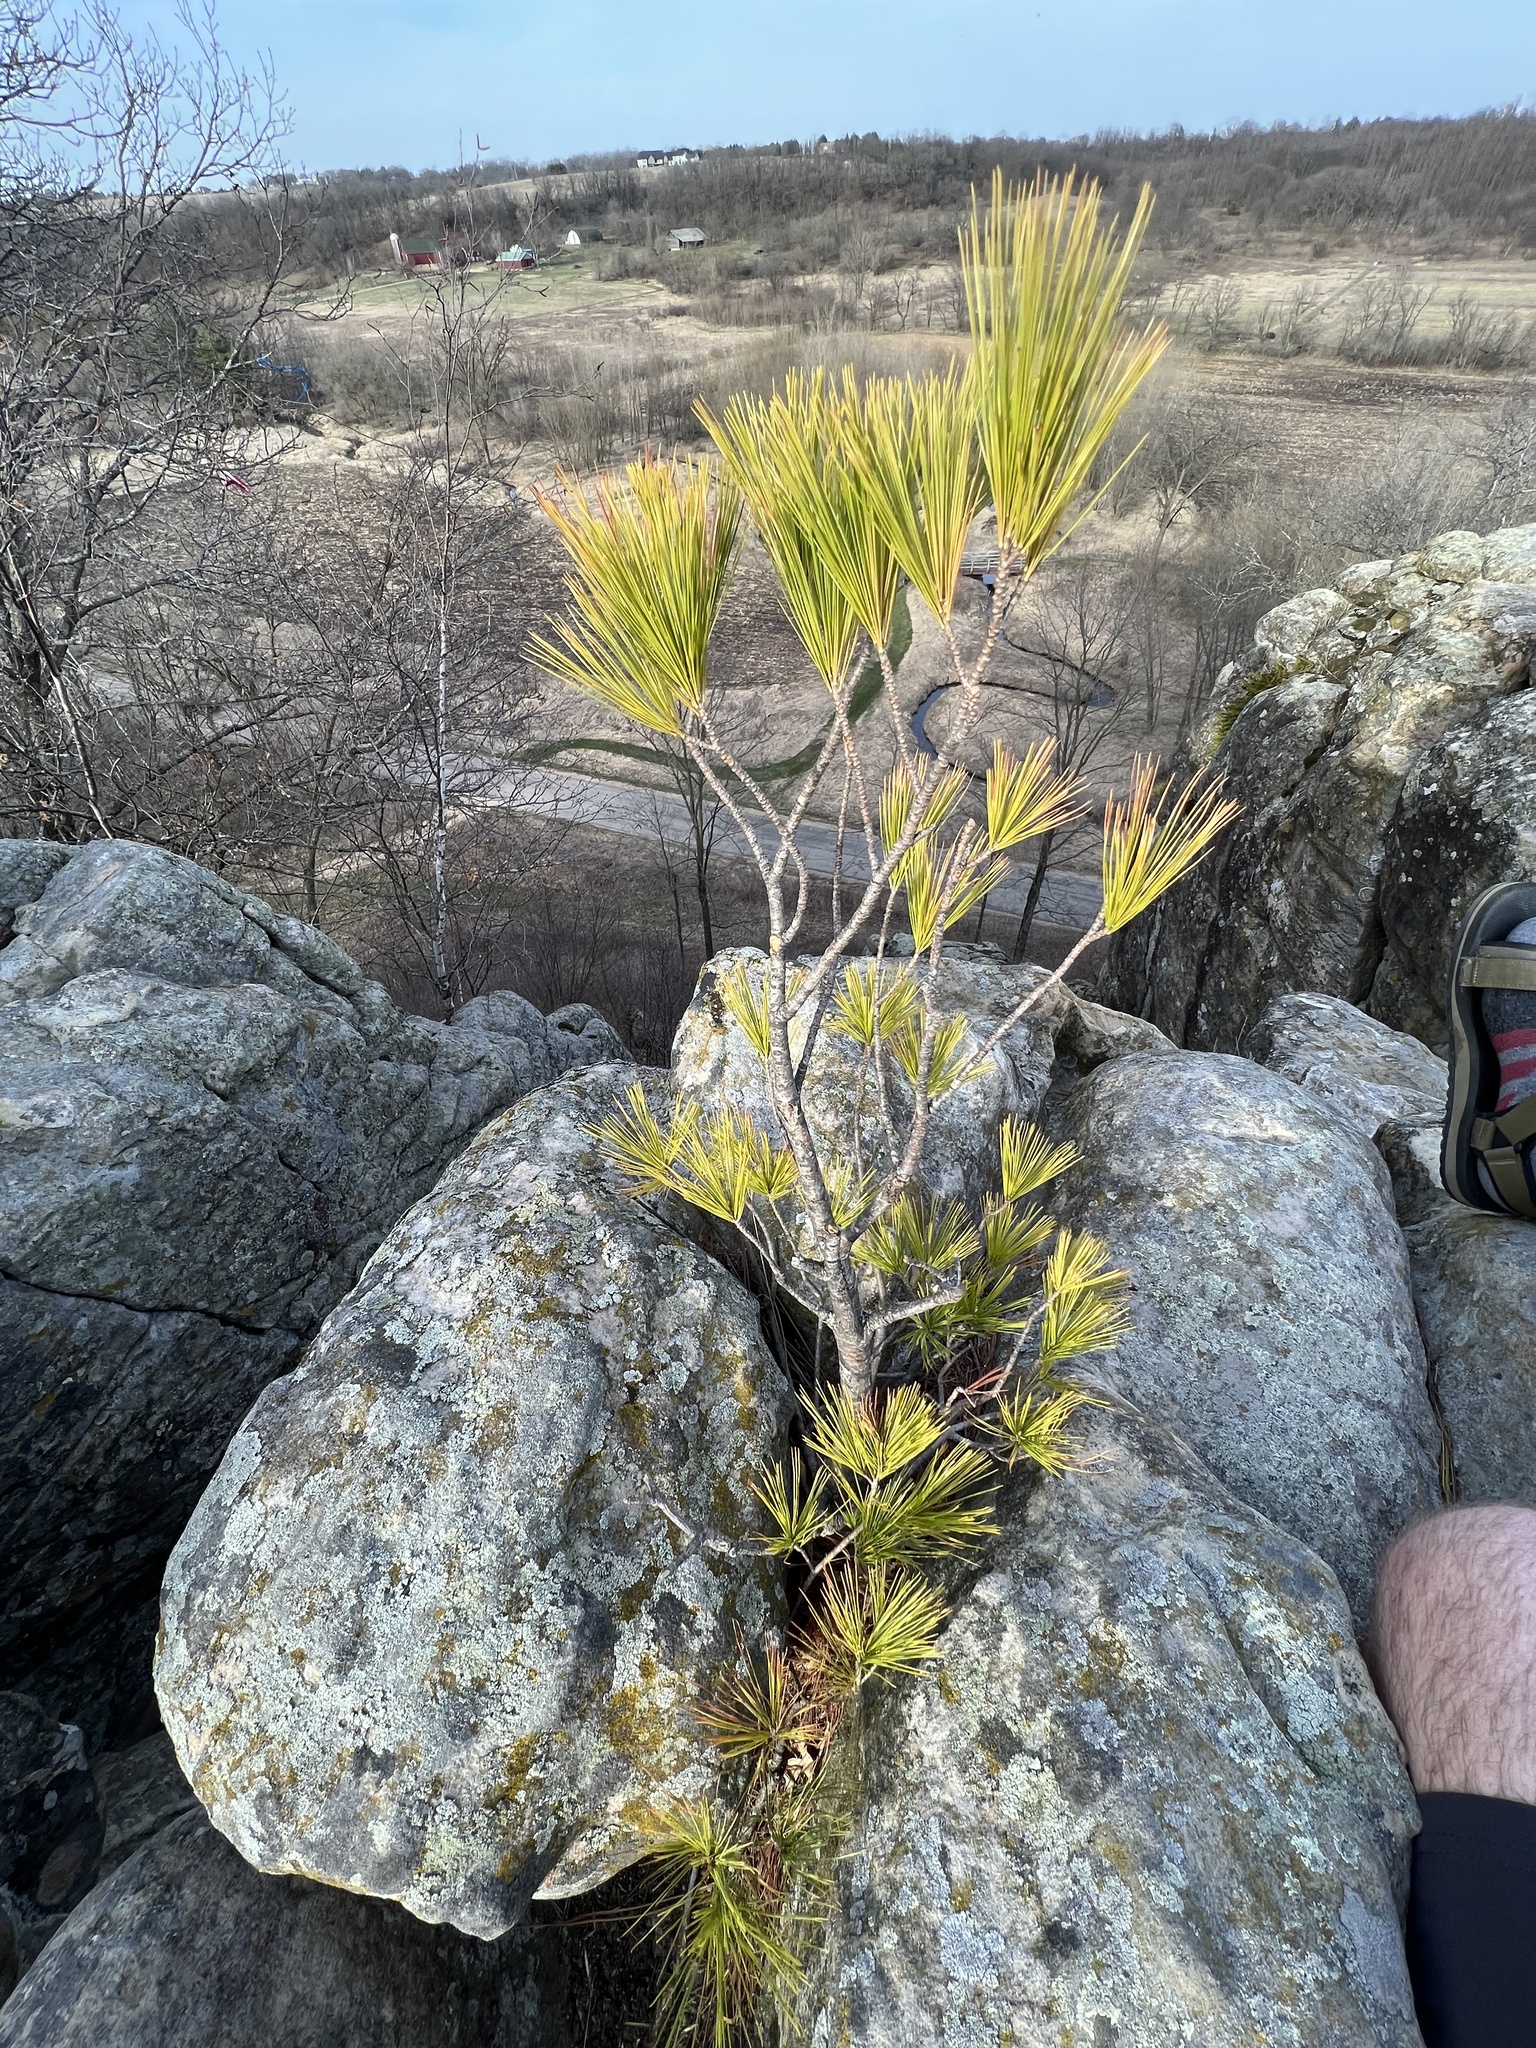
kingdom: Plantae
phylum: Tracheophyta
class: Pinopsida
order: Pinales
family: Pinaceae
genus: Pinus
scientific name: Pinus strobus
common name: Weymouth pine
